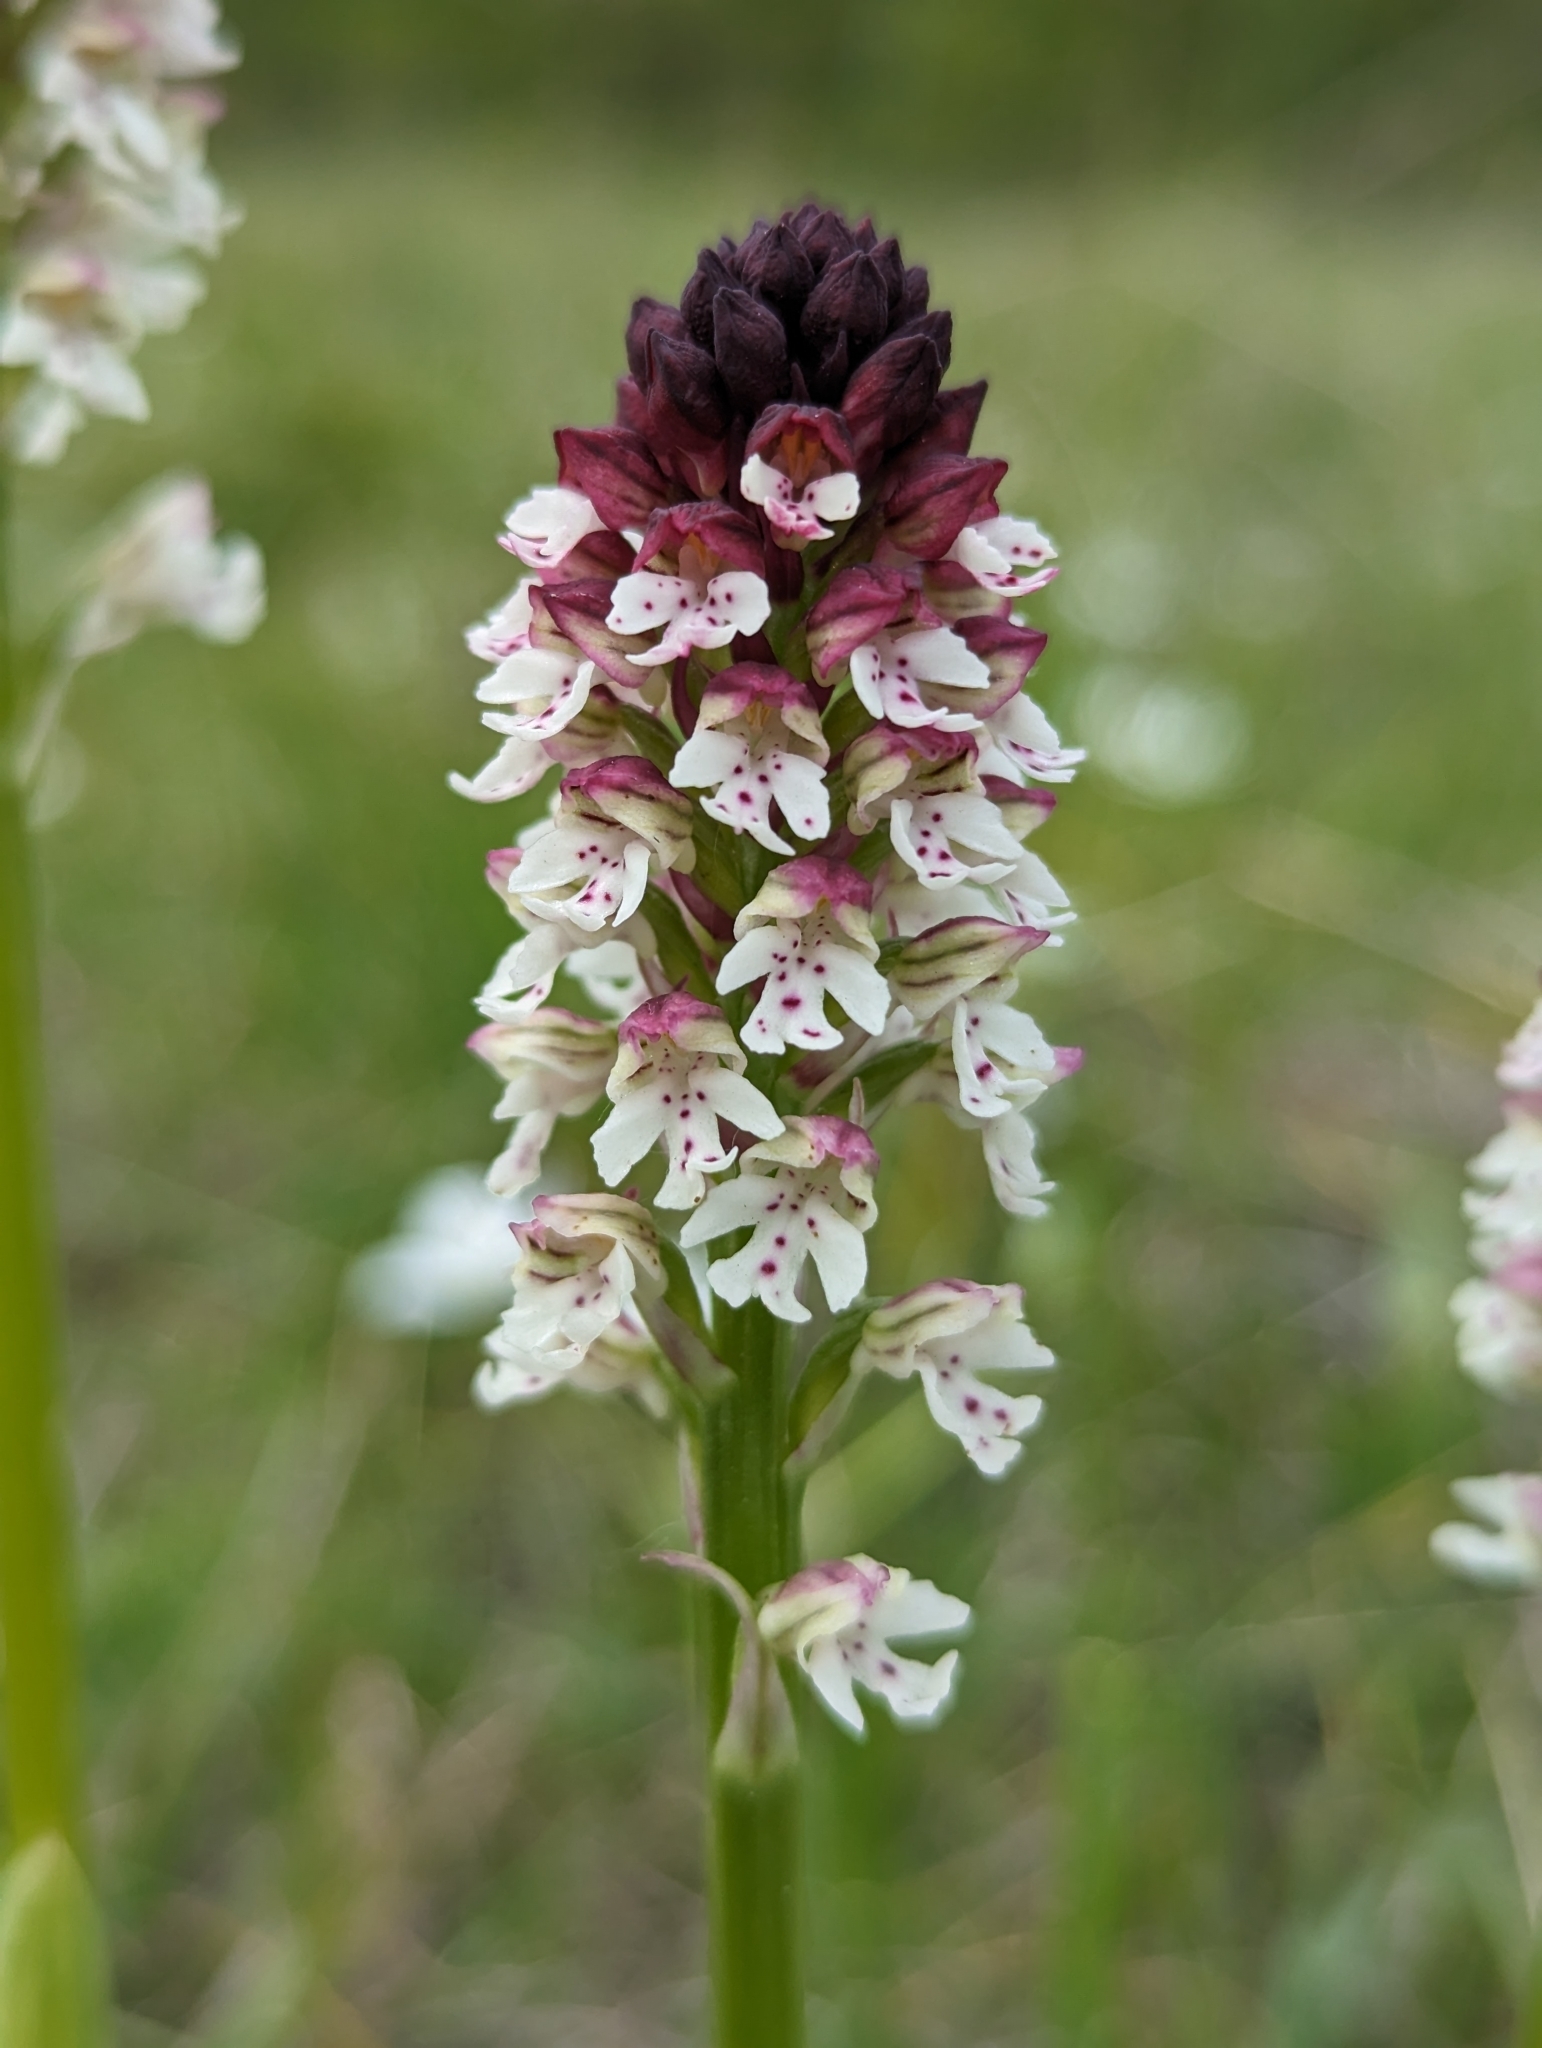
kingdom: Plantae
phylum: Tracheophyta
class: Liliopsida
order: Asparagales
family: Orchidaceae
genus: Neotinea
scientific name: Neotinea ustulata
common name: Burnt orchid
